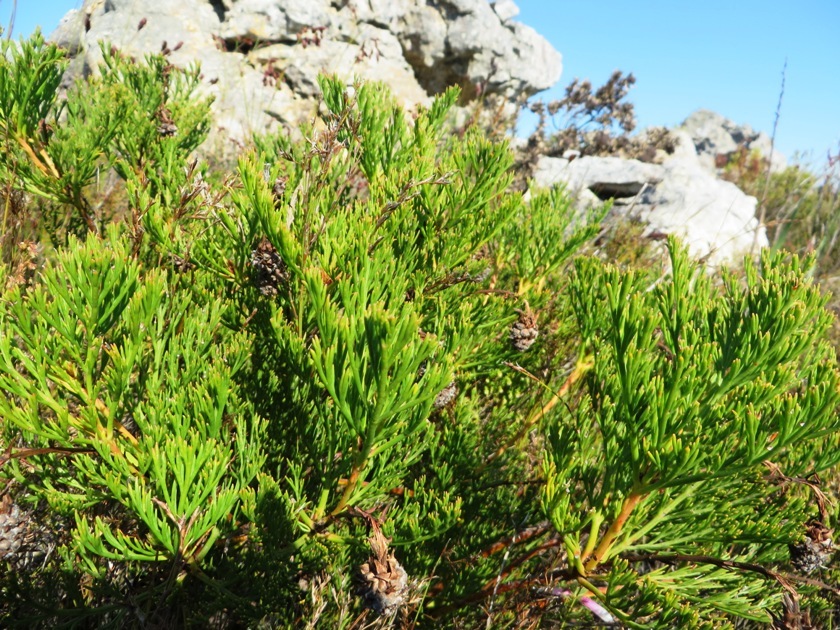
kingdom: Plantae
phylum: Tracheophyta
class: Magnoliopsida
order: Proteales
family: Proteaceae
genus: Serruria
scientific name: Serruria elongata
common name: Long-stalk spiderhead
